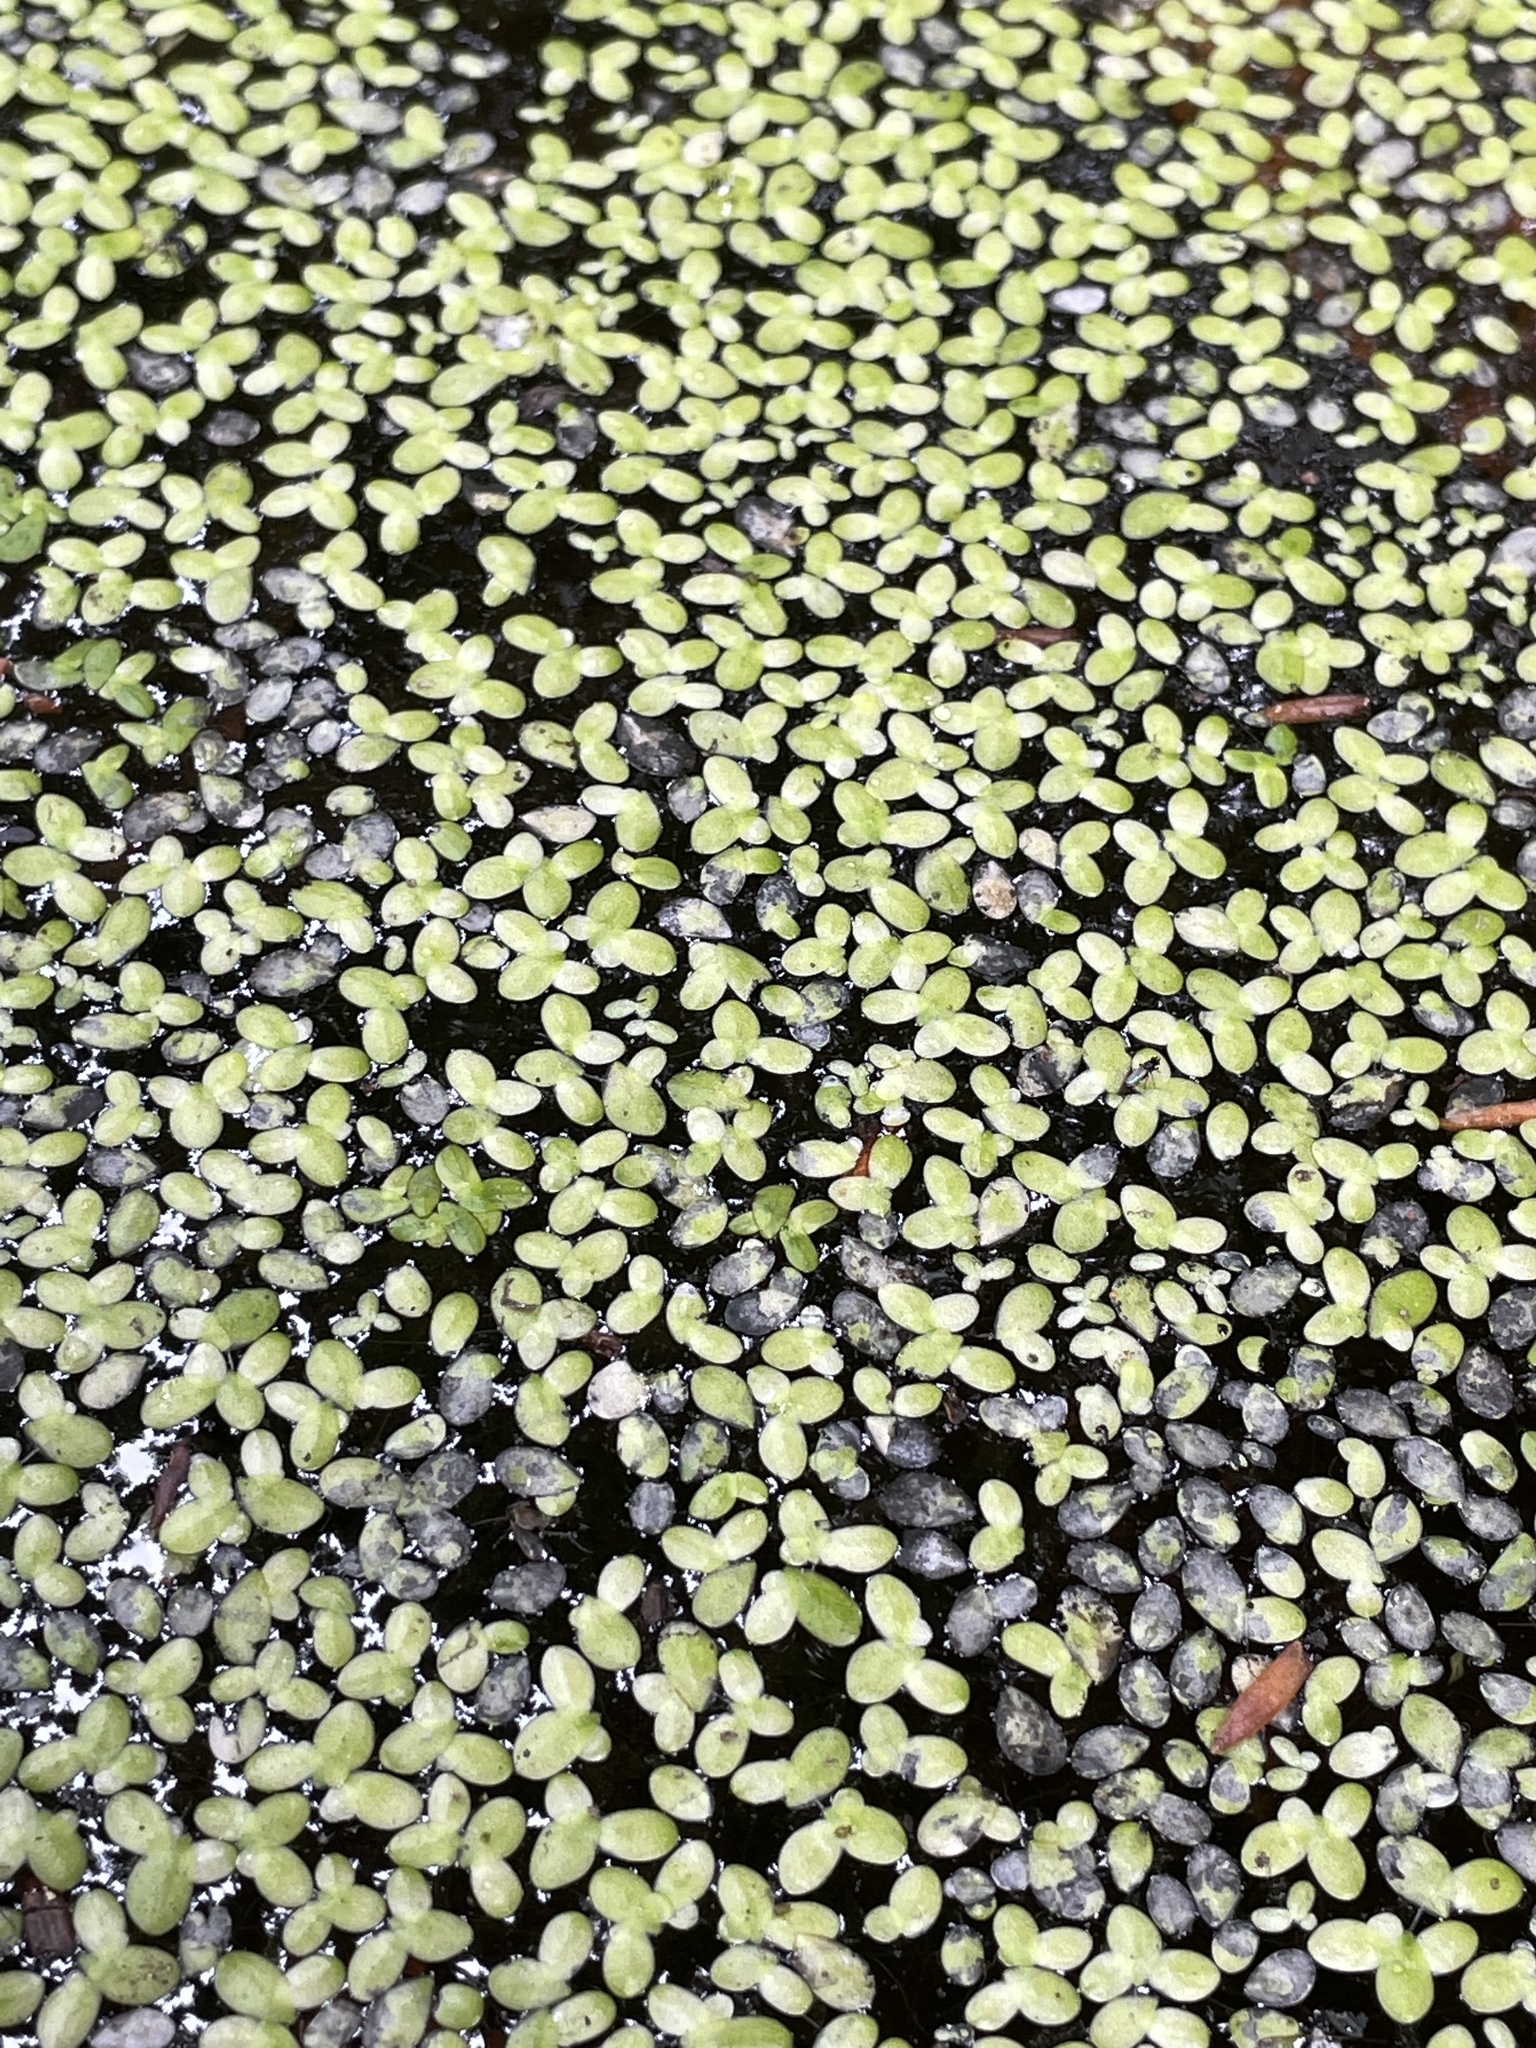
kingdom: Plantae
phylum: Tracheophyta
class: Liliopsida
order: Alismatales
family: Araceae
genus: Lemna
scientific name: Lemna minor
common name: Common duckweed
